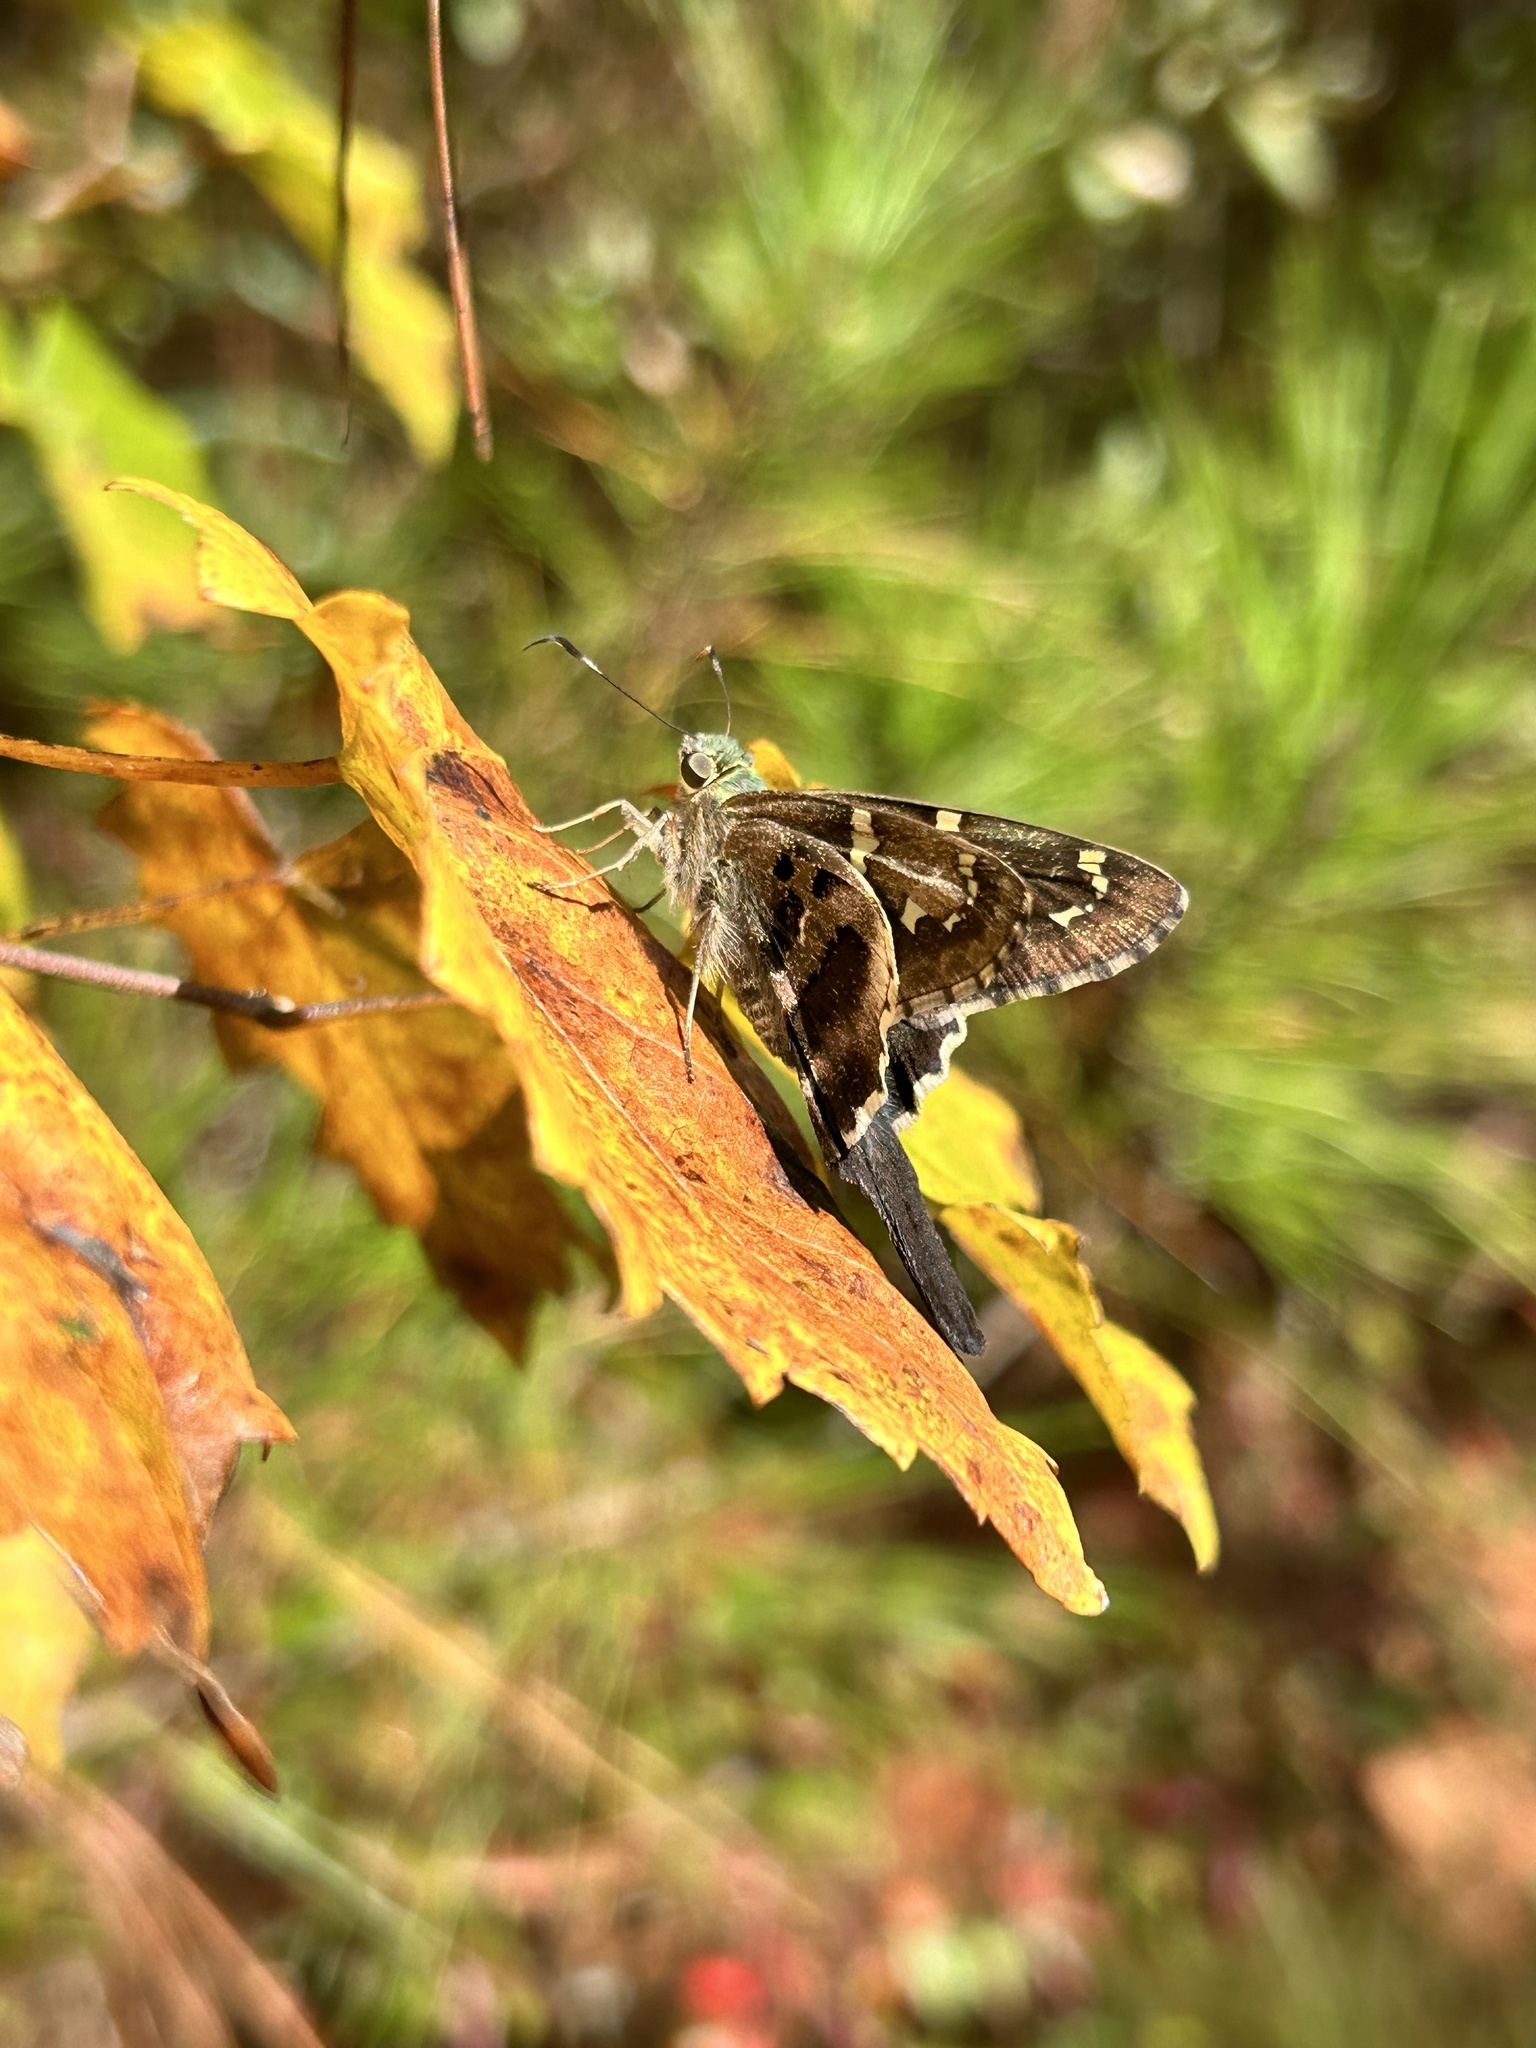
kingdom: Animalia
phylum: Arthropoda
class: Insecta
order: Lepidoptera
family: Hesperiidae
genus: Urbanus
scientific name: Urbanus proteus
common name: Long-tailed skipper
